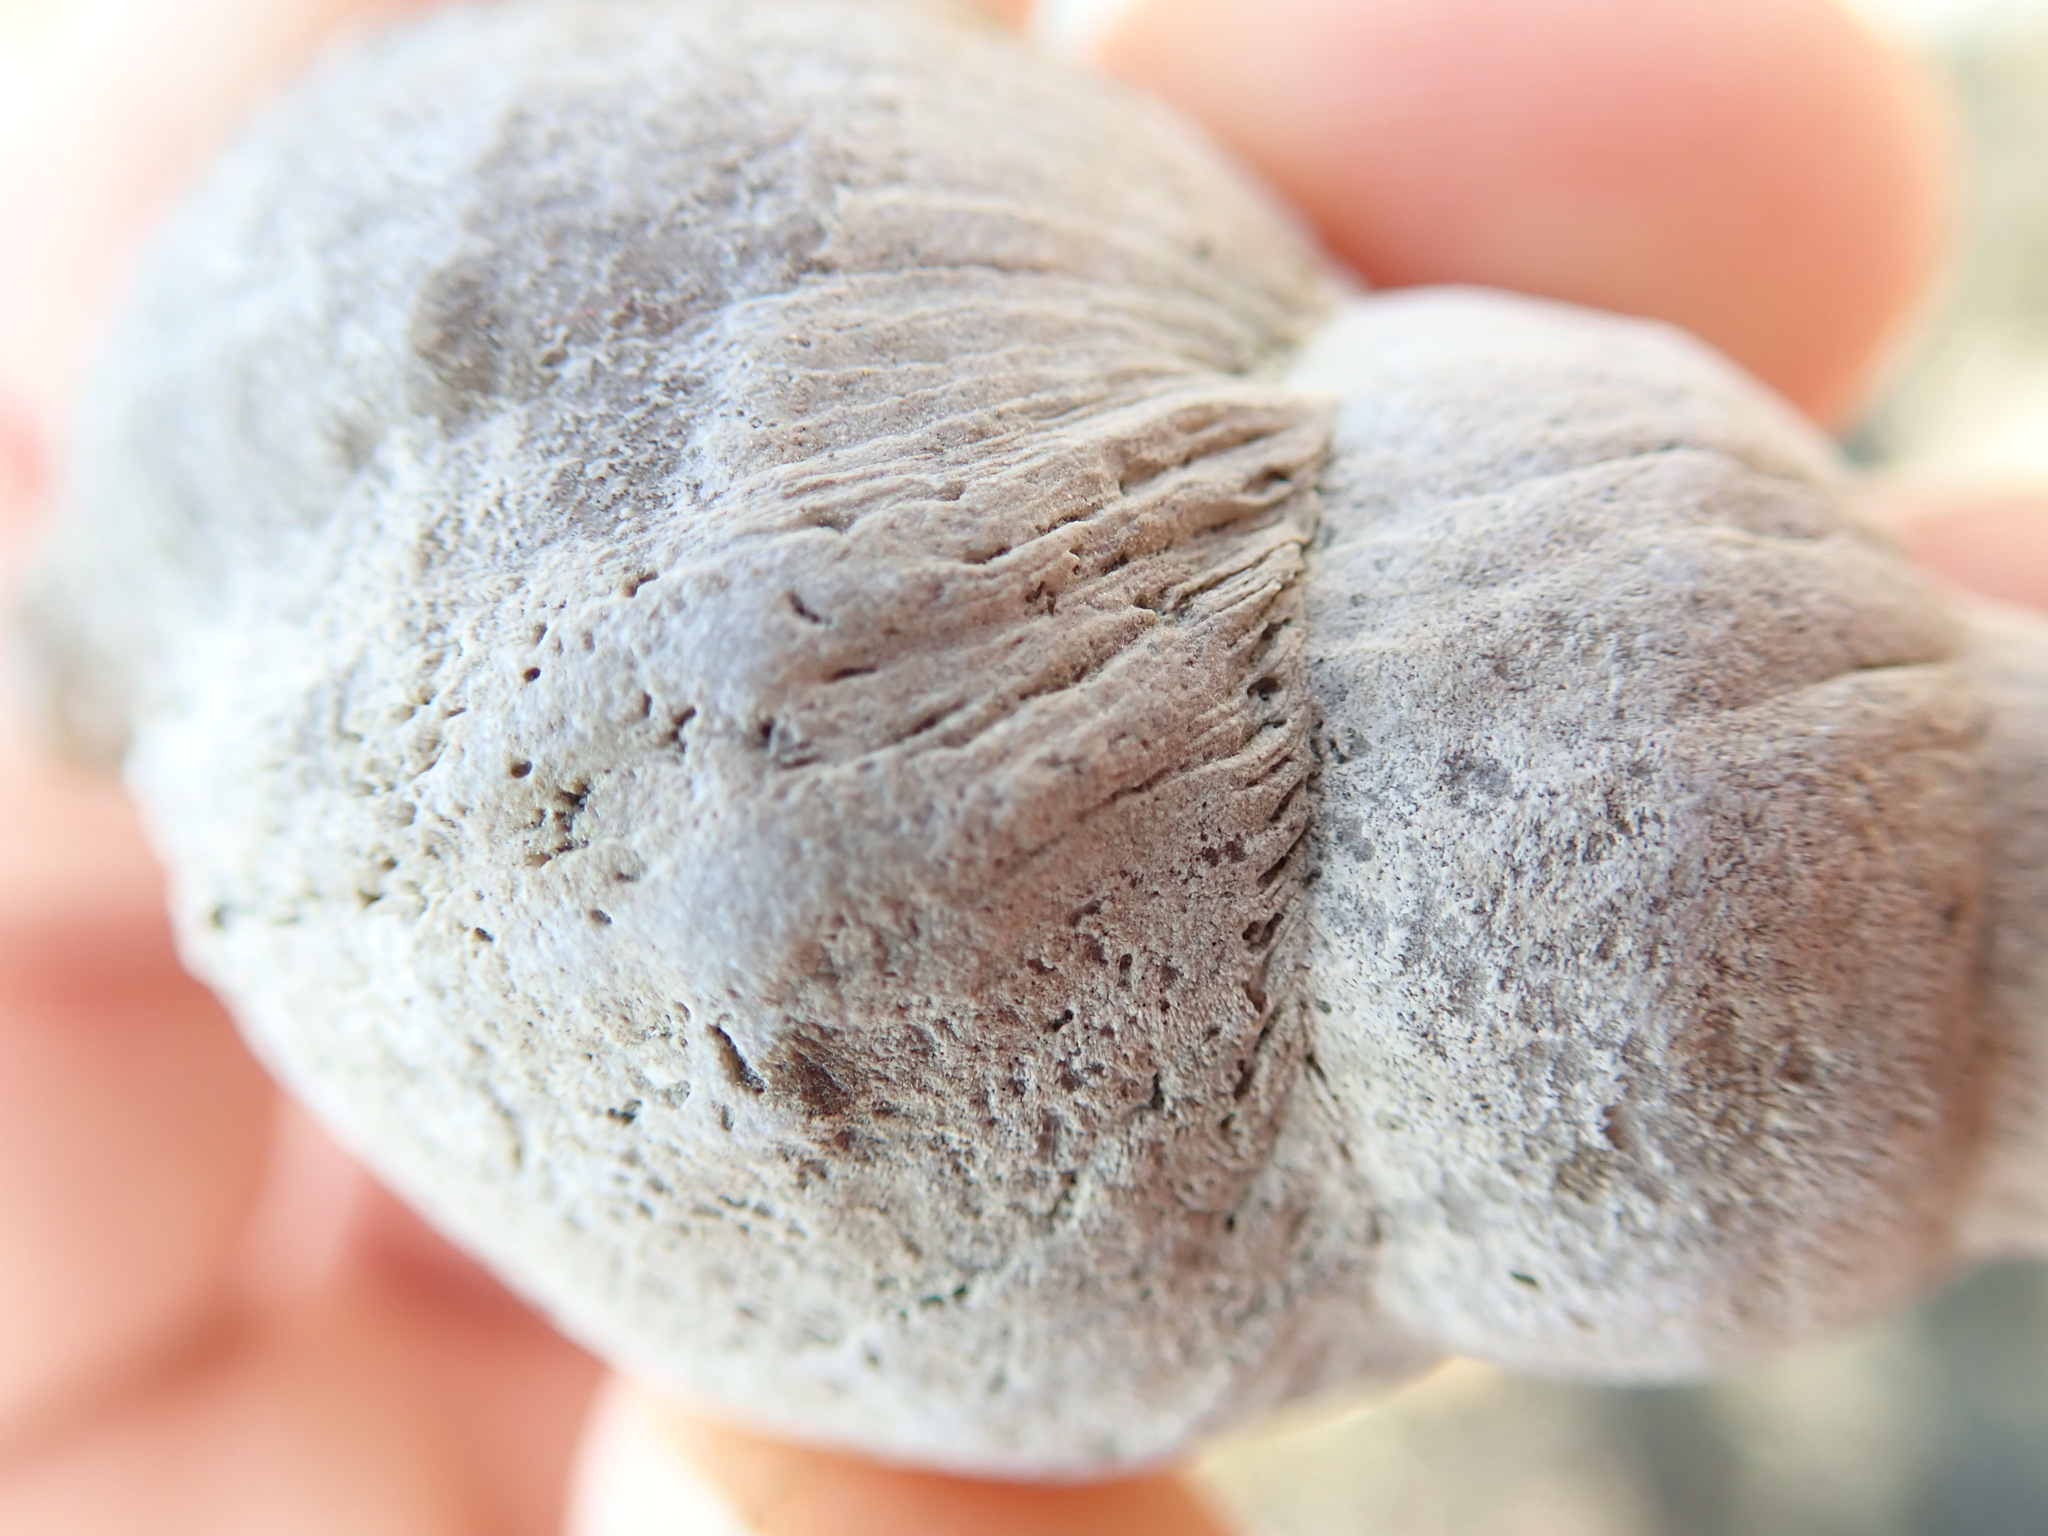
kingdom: Animalia
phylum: Mollusca
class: Gastropoda
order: Neogastropoda
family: Muricidae
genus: Nucella
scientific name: Nucella lamellosa
